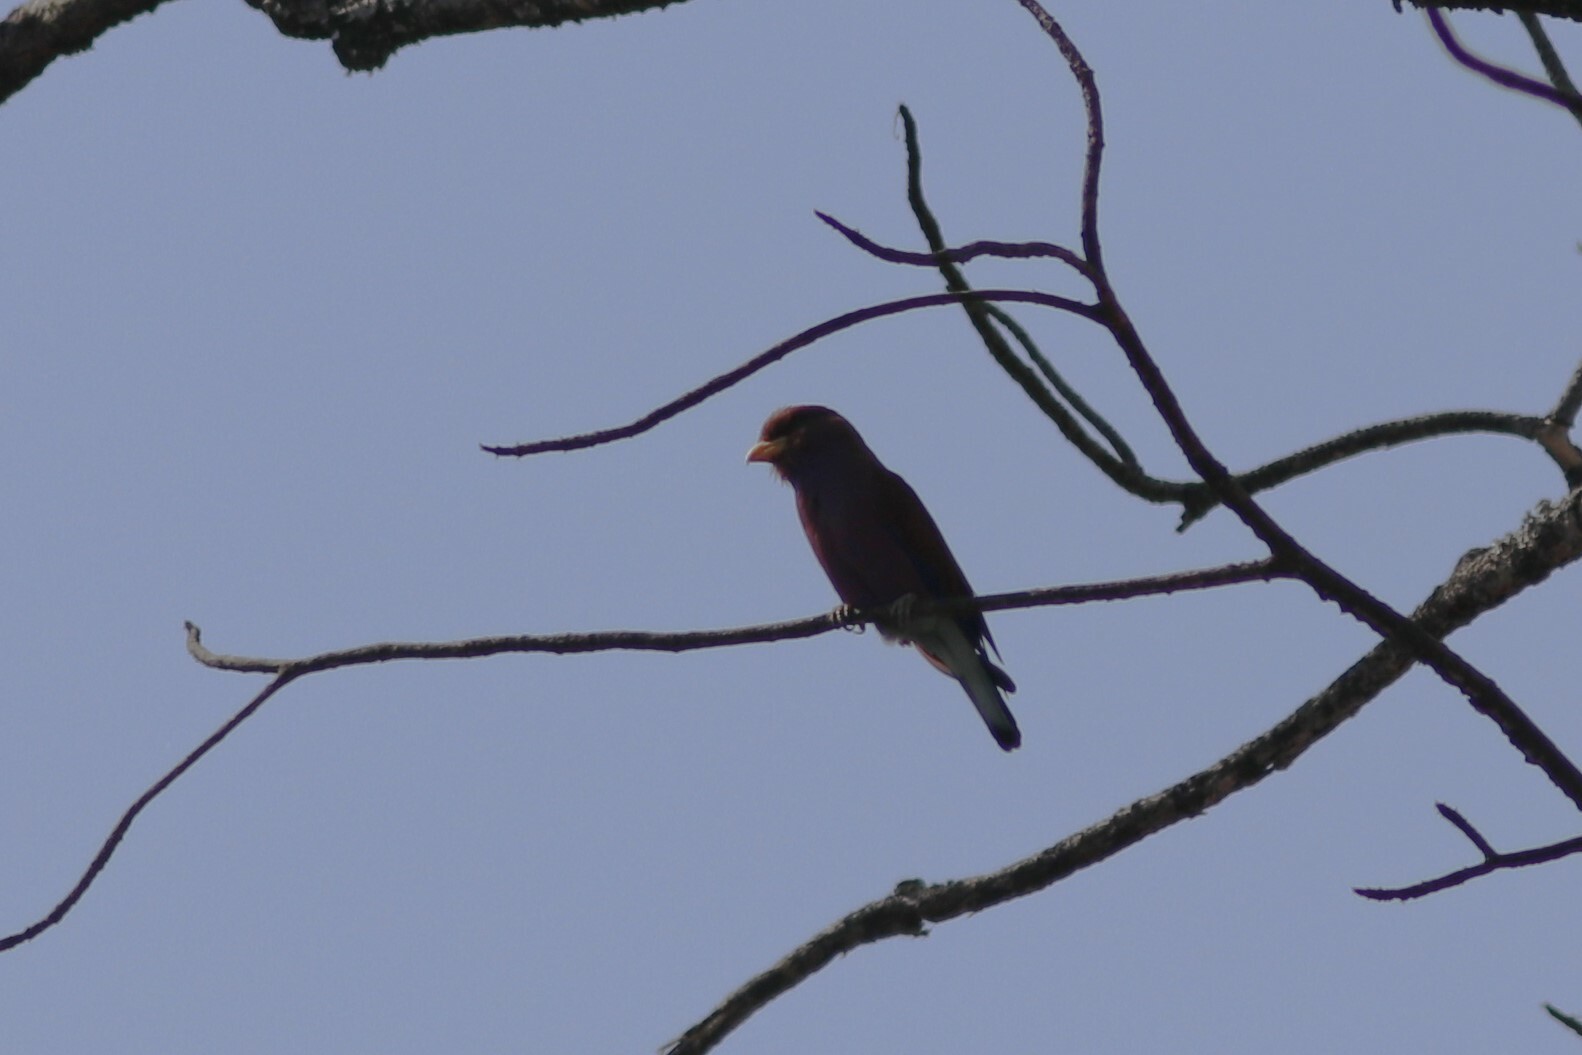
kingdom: Animalia
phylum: Chordata
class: Aves
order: Coraciiformes
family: Coraciidae
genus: Eurystomus
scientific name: Eurystomus glaucurus
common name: Broad-billed roller
